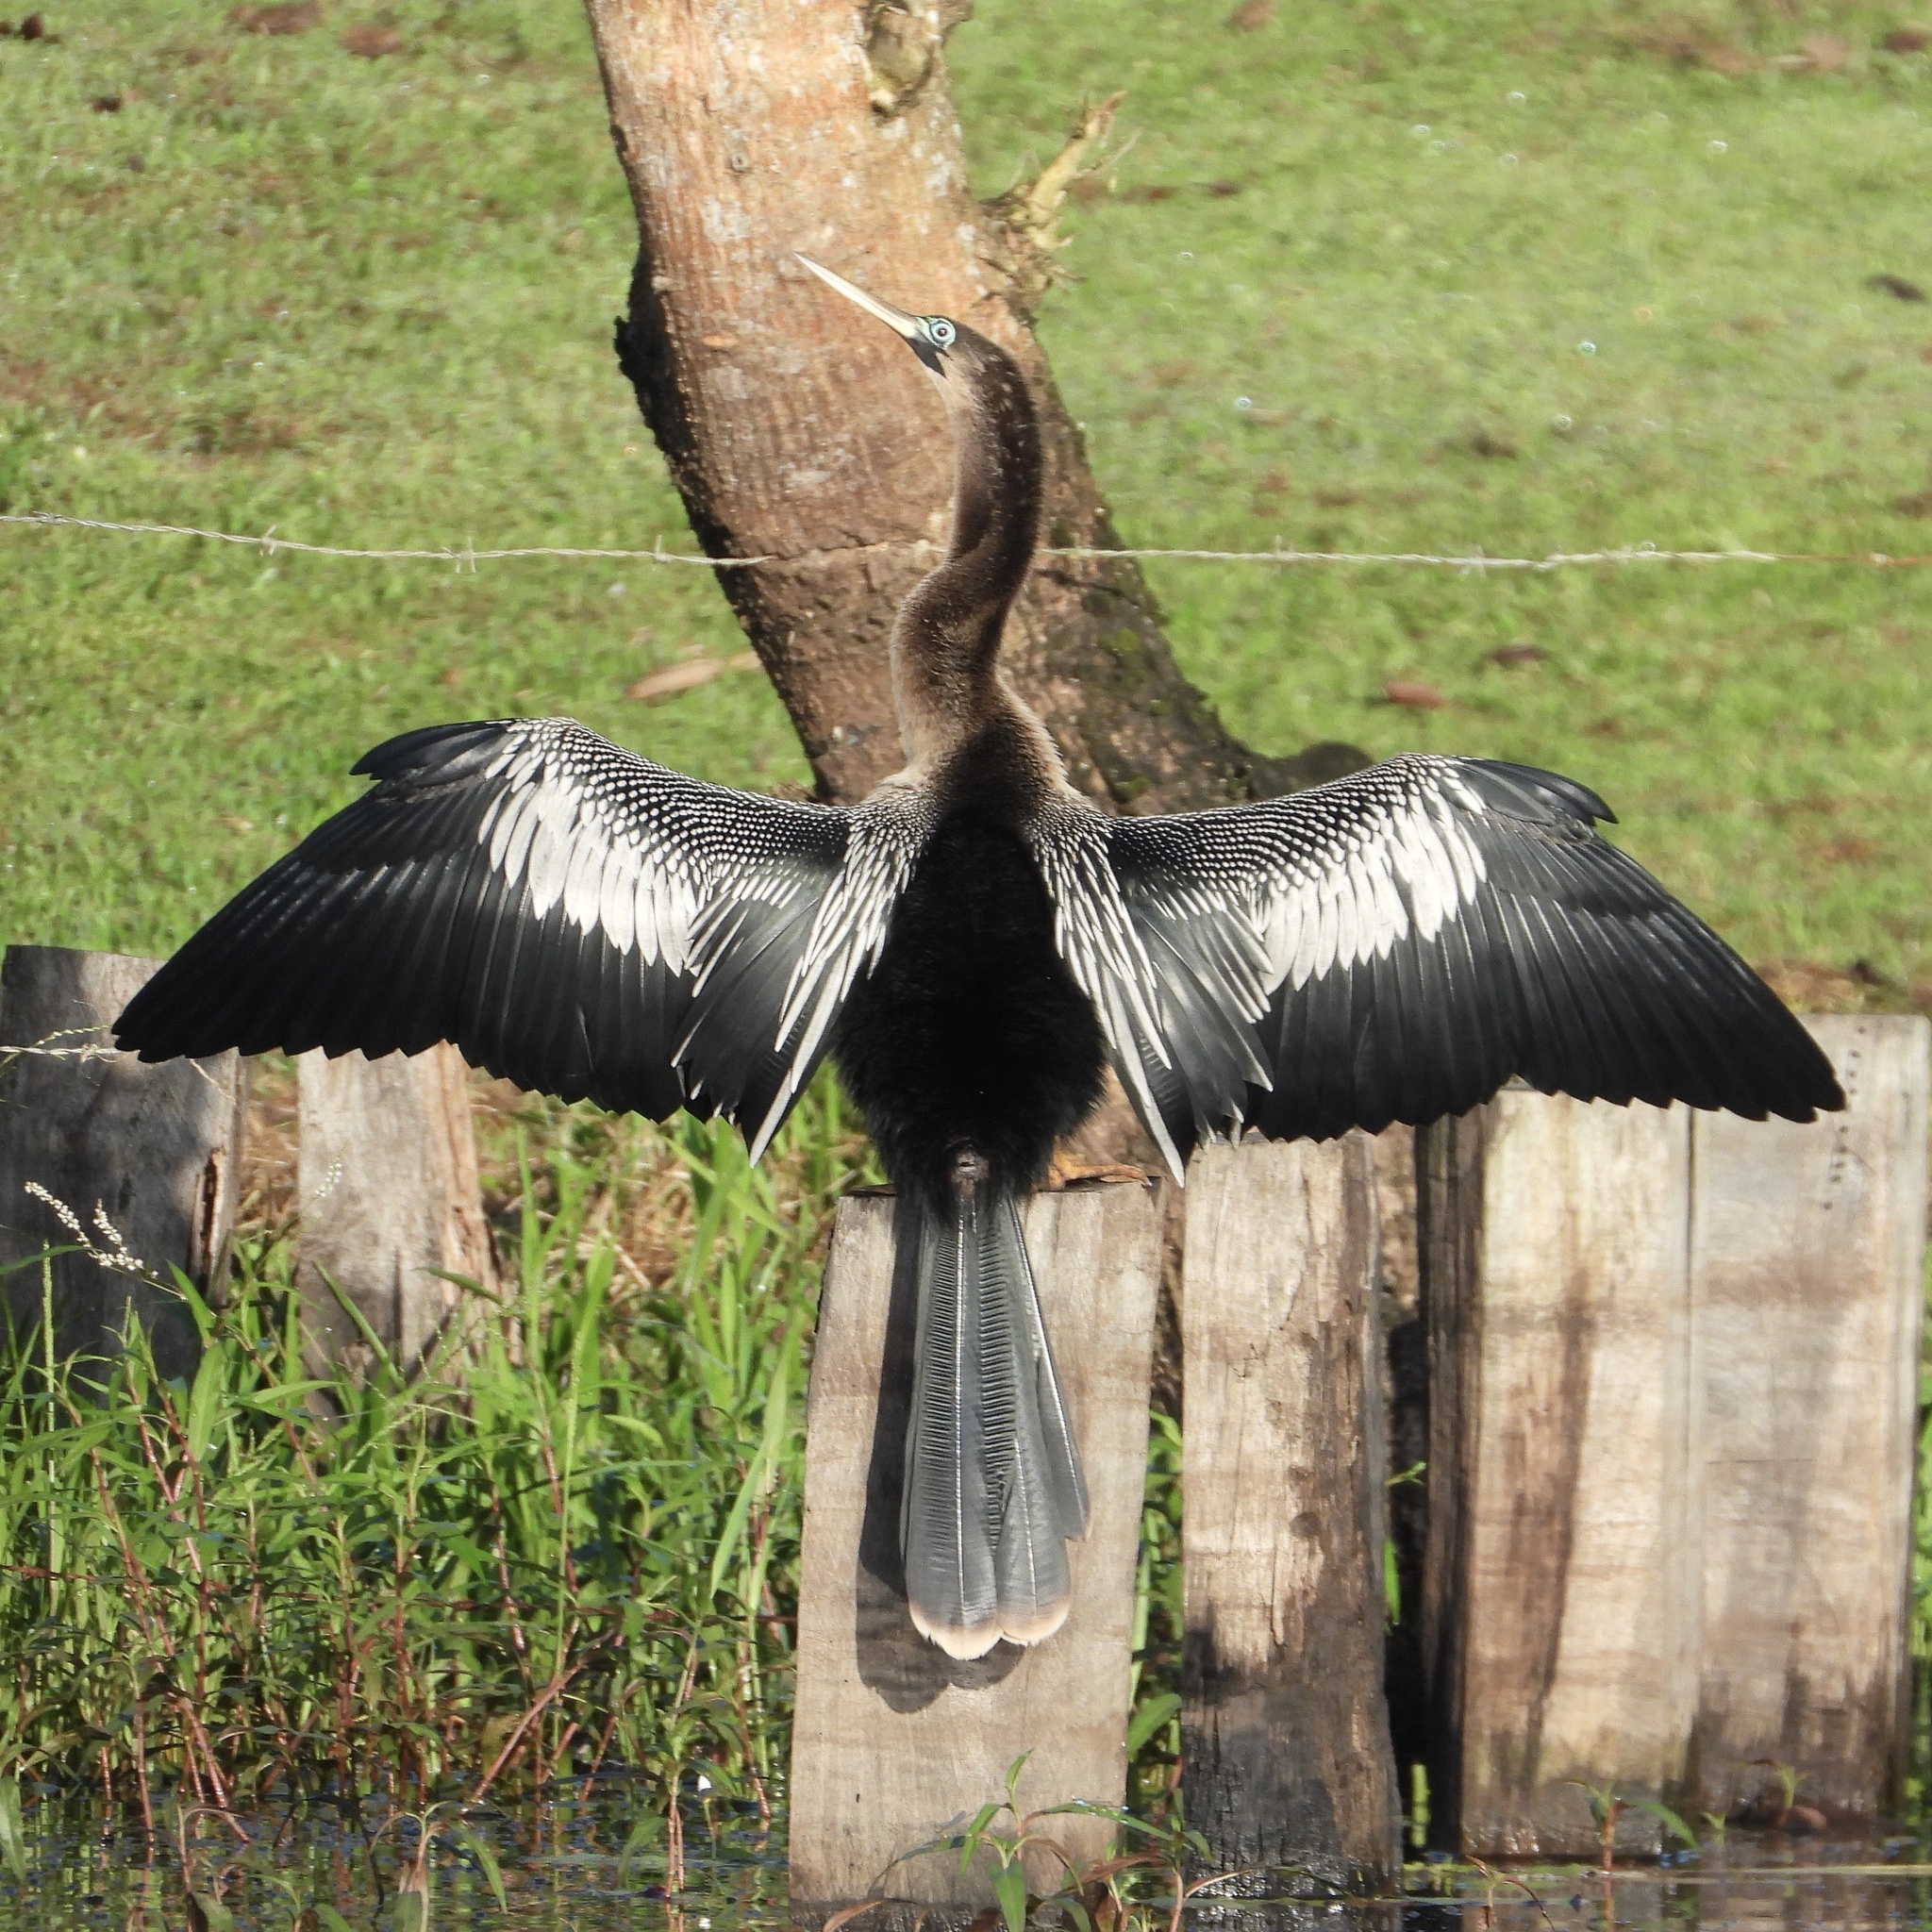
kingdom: Animalia
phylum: Chordata
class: Aves
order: Suliformes
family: Anhingidae
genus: Anhinga
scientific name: Anhinga anhinga
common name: Anhinga
